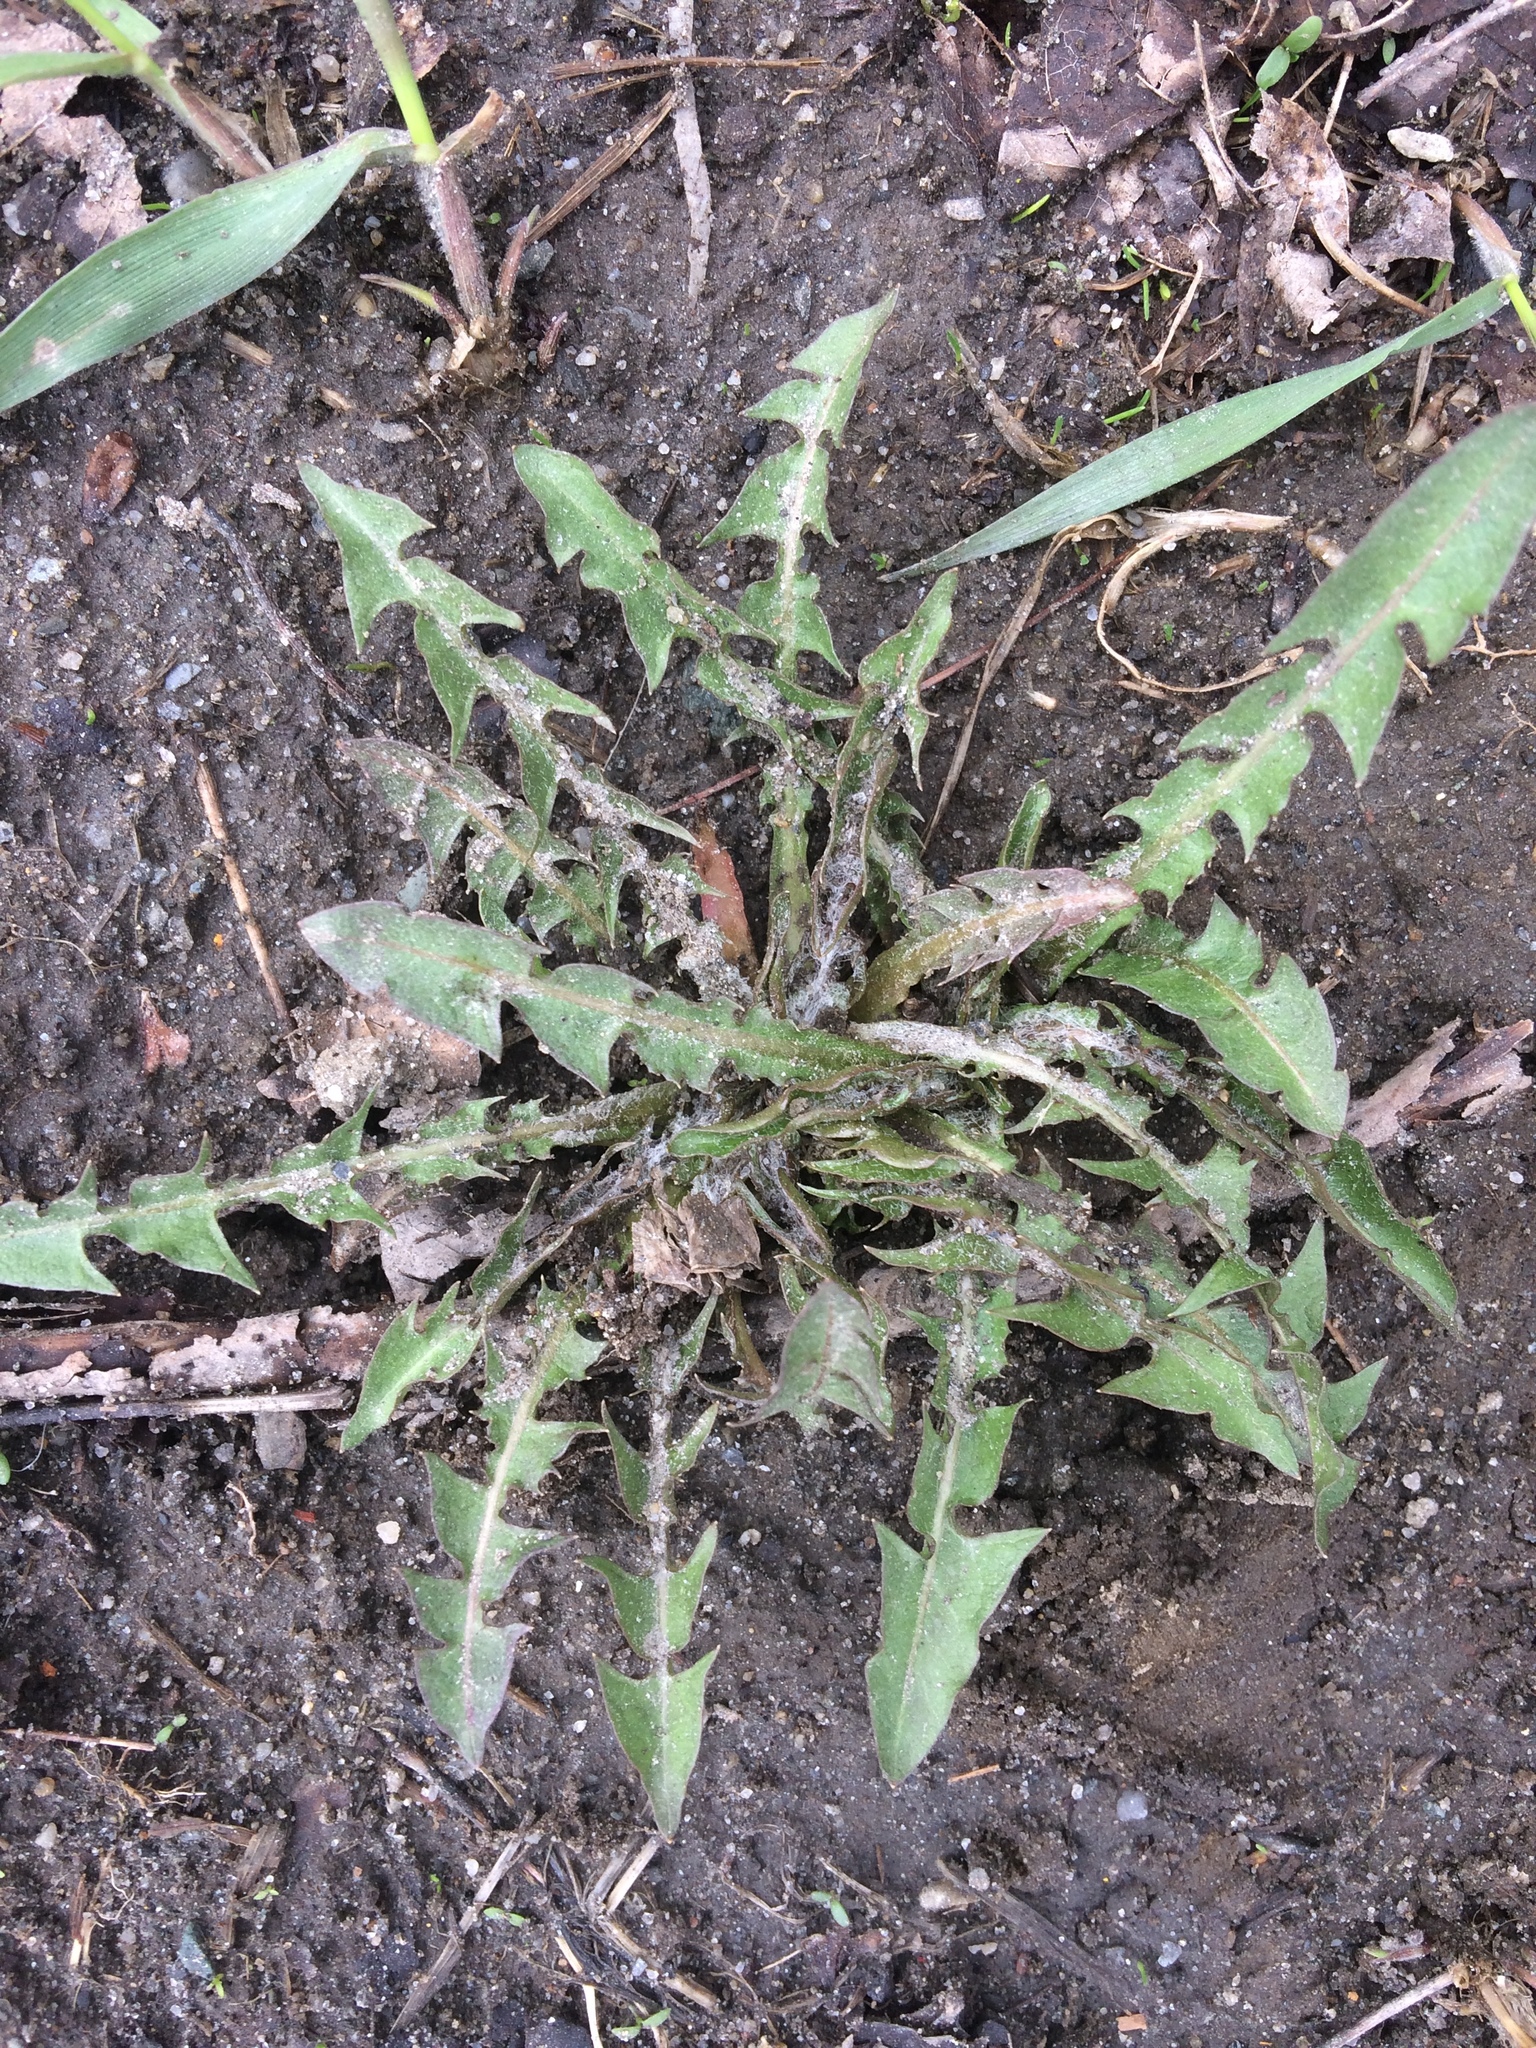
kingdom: Plantae
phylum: Tracheophyta
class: Magnoliopsida
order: Asterales
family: Asteraceae
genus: Taraxacum
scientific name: Taraxacum officinale
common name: Common dandelion
